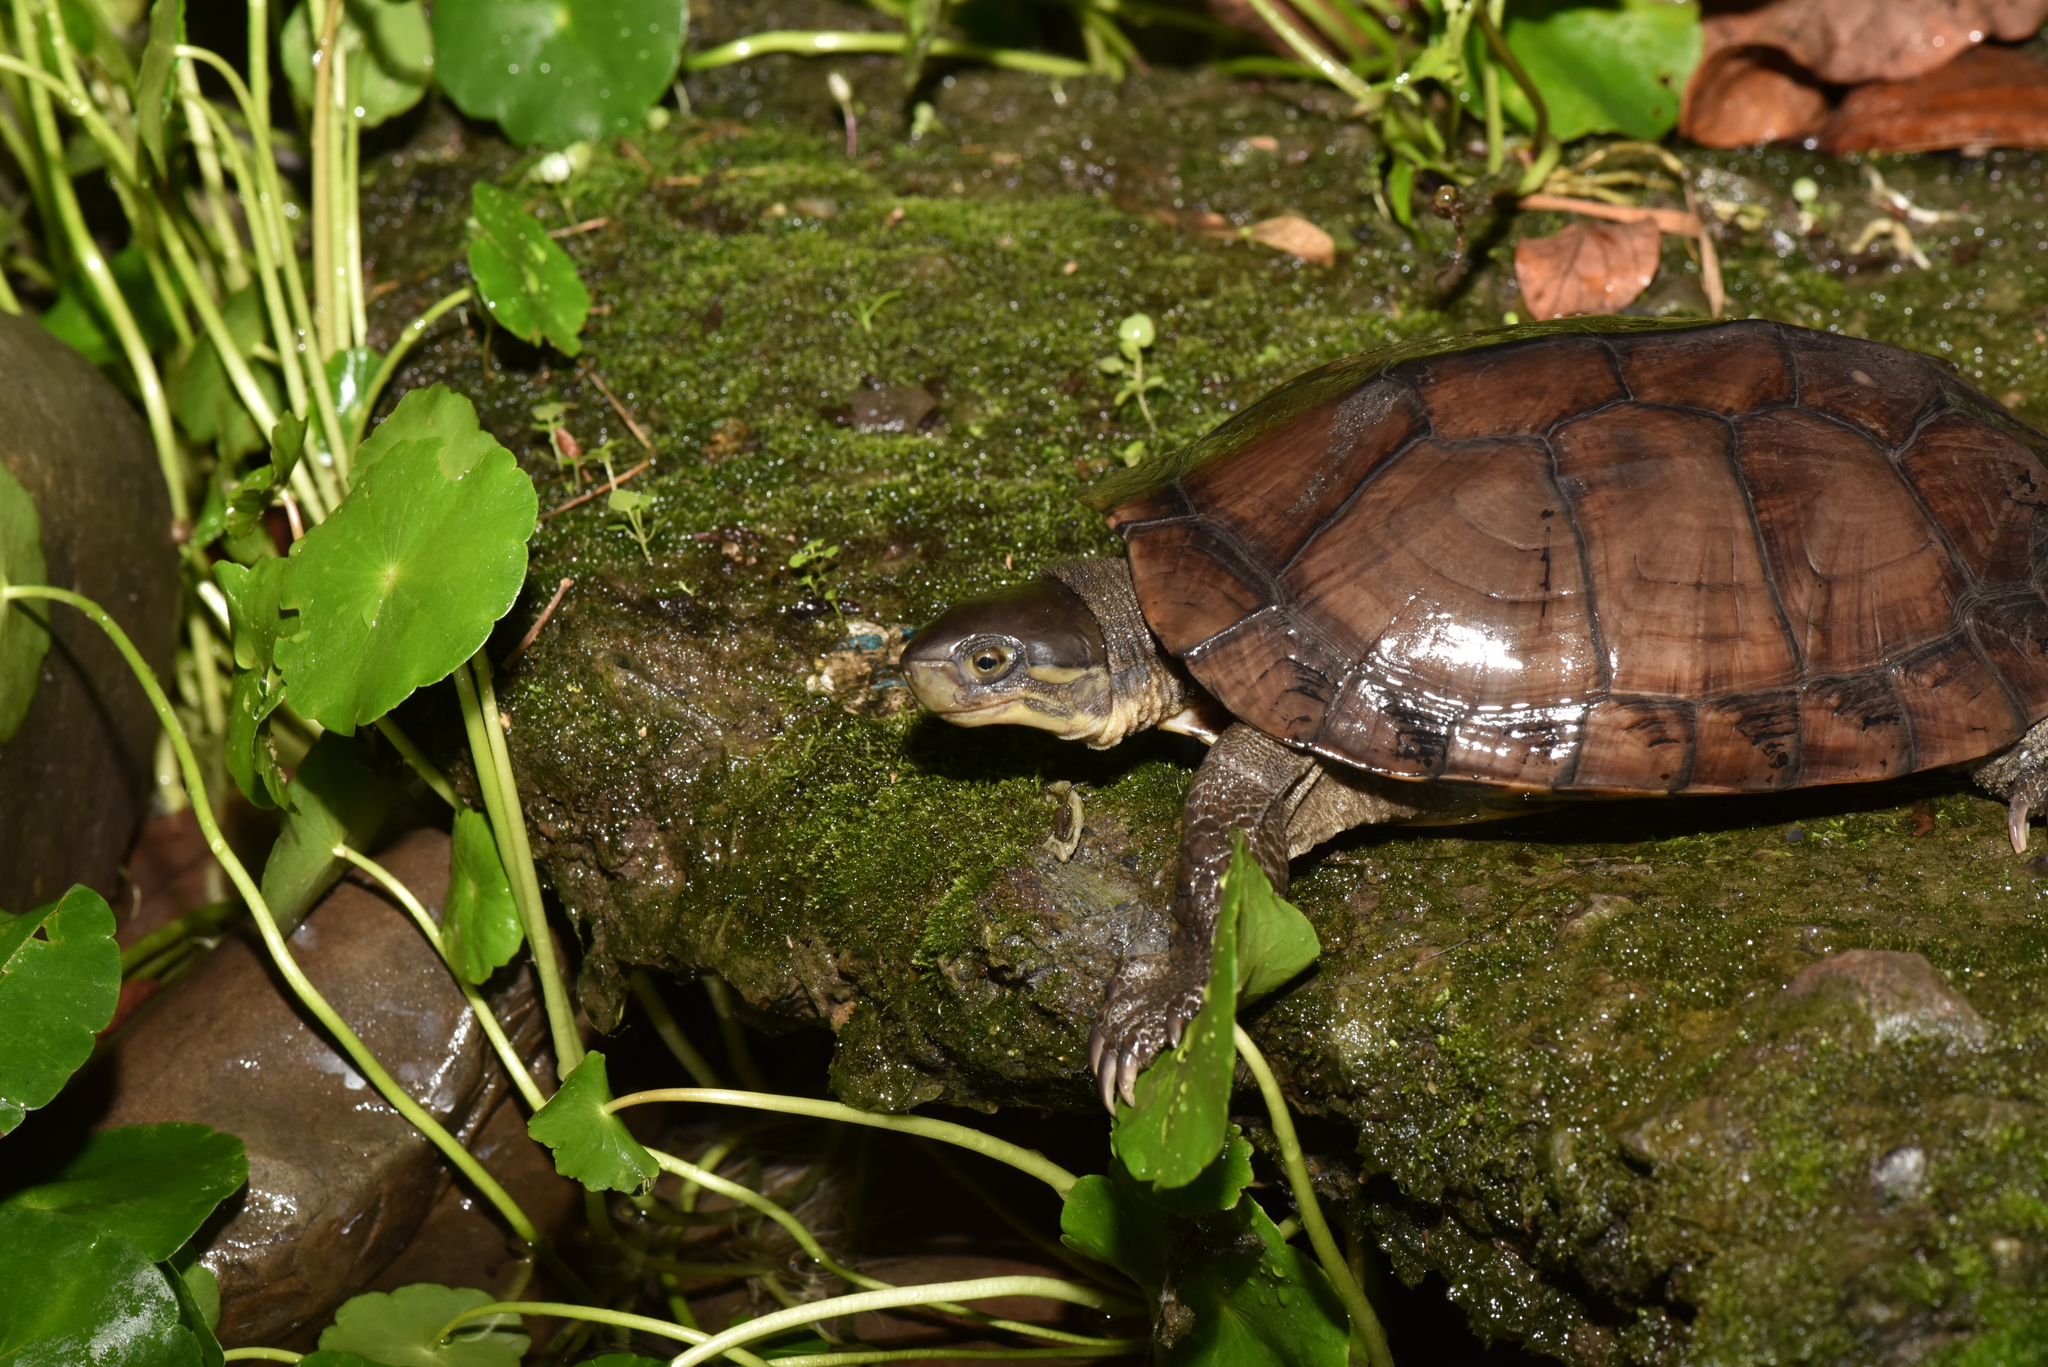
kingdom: Animalia
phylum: Chordata
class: Testudines
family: Geoemydidae
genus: Mauremys
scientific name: Mauremys mutica
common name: Yellow pond turtle
